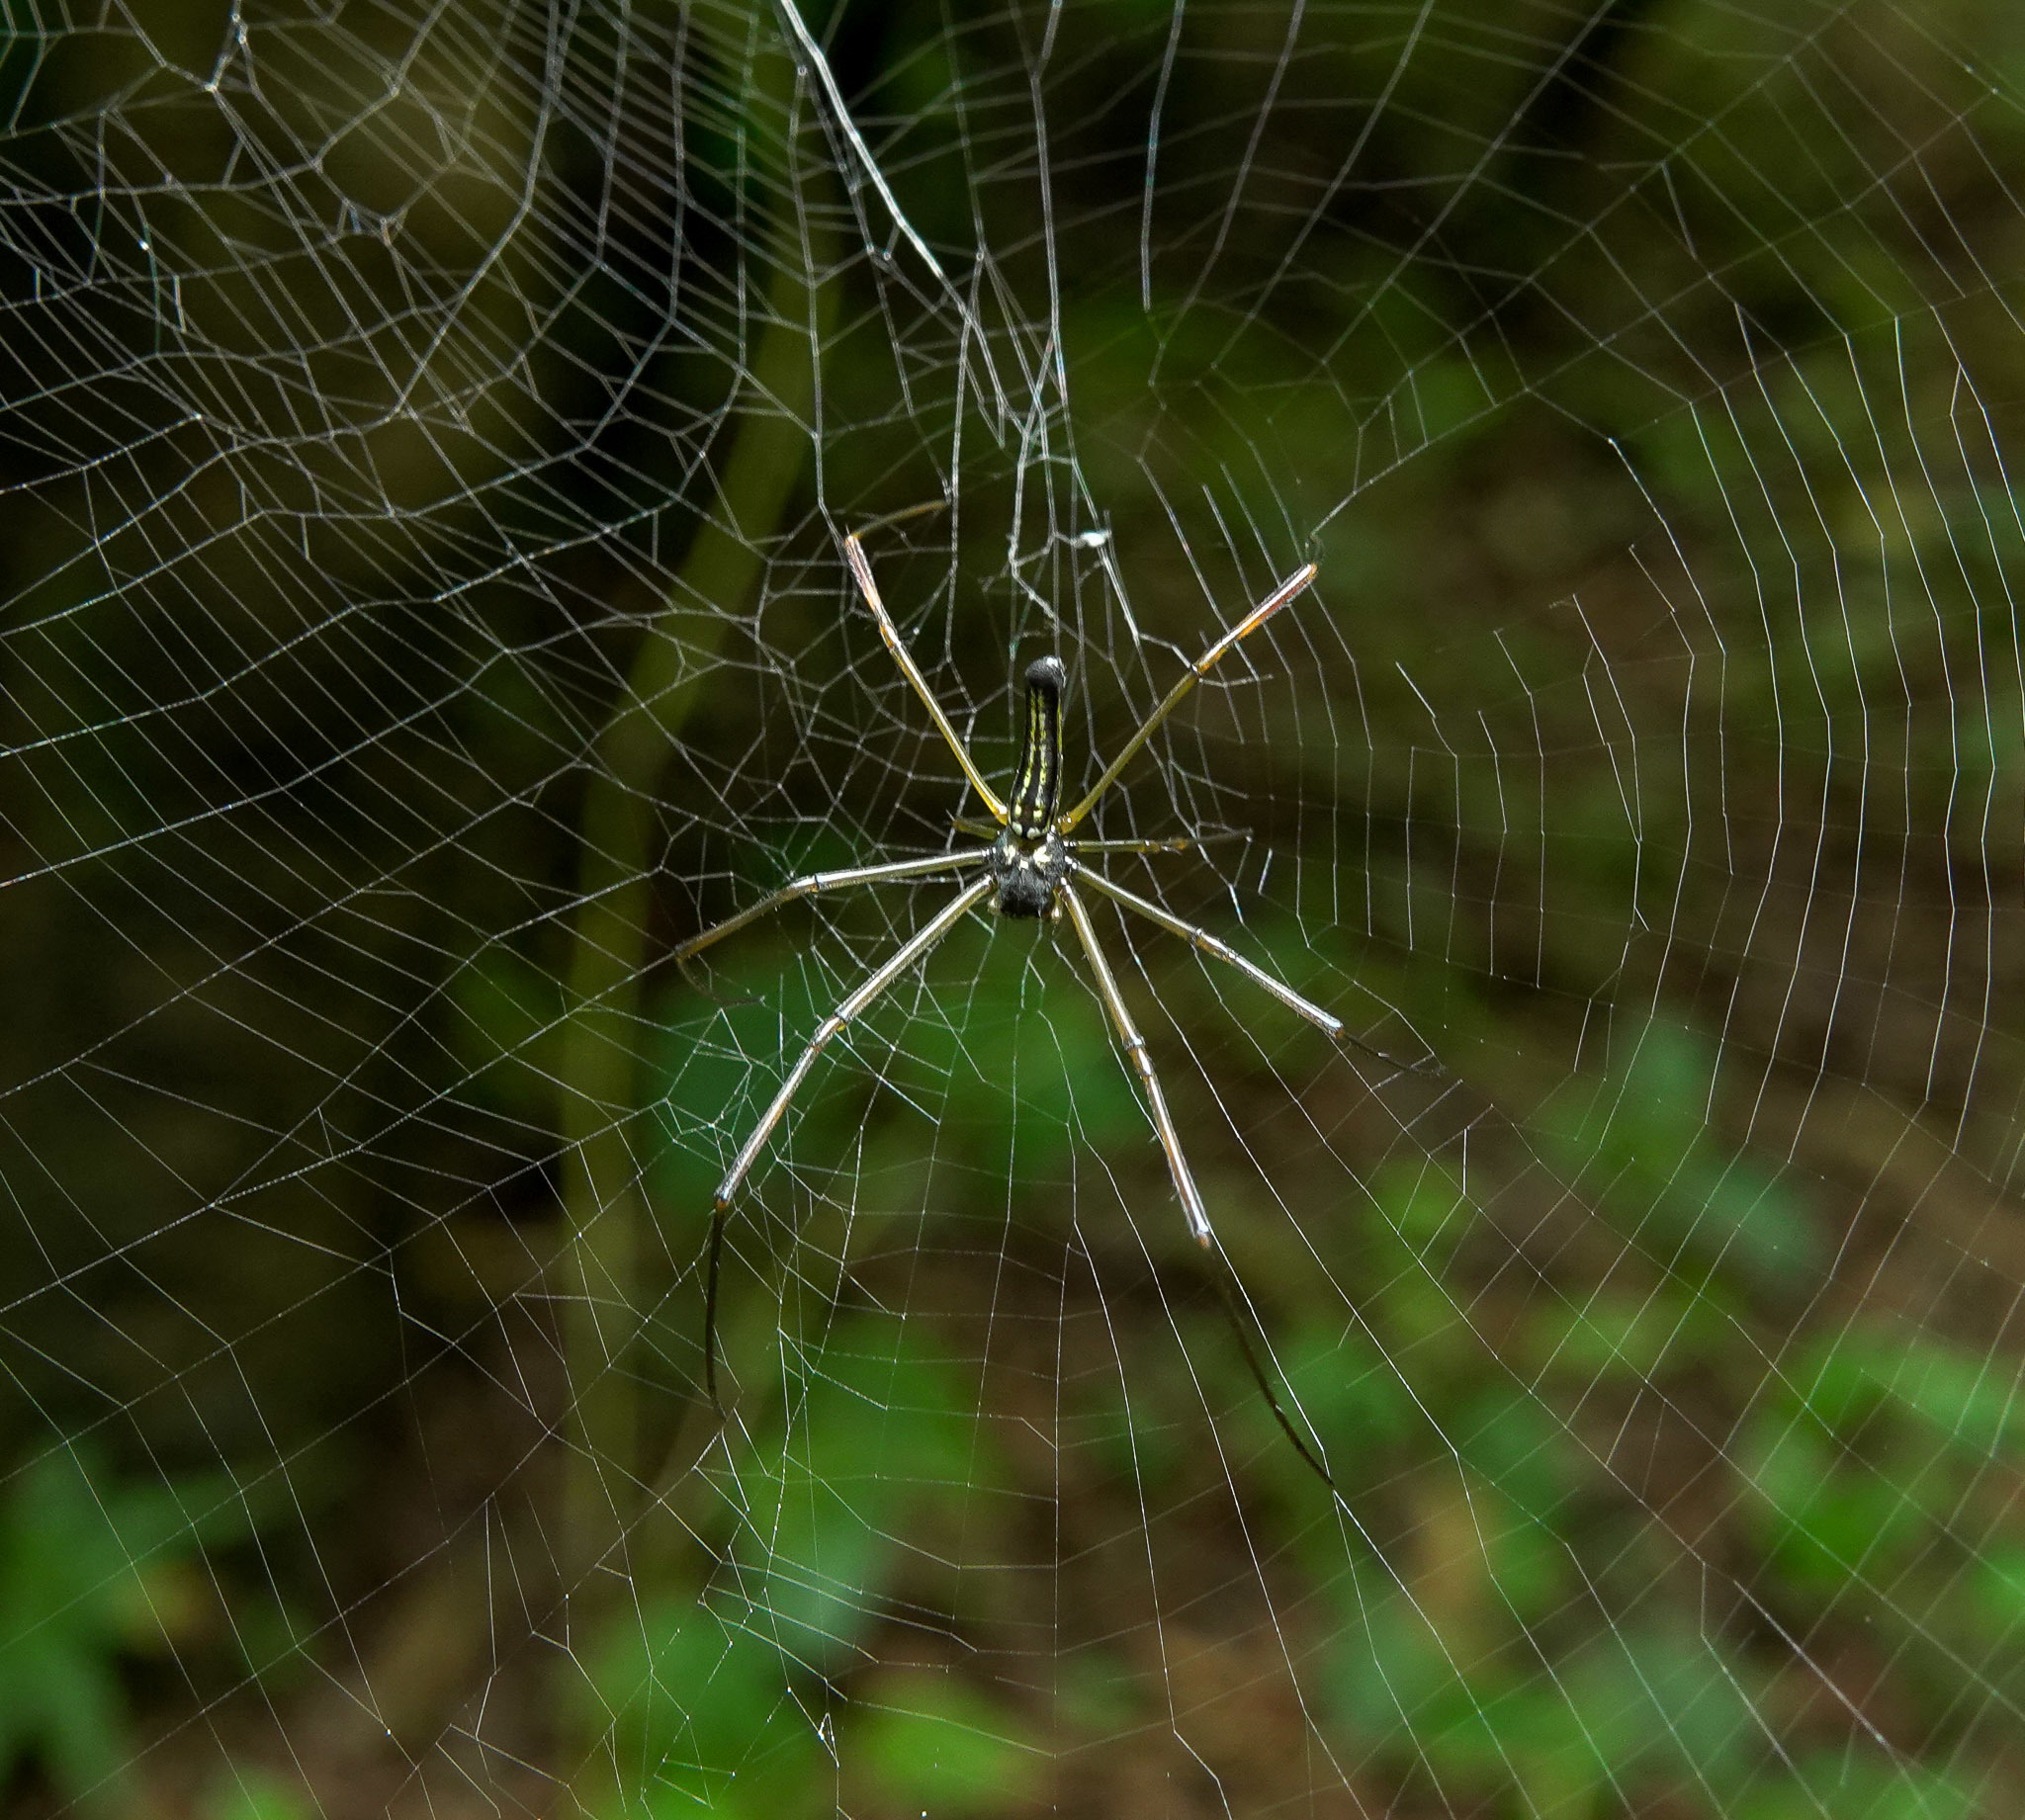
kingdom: Animalia
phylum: Arthropoda
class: Arachnida
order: Araneae
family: Araneidae
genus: Nephila
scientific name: Nephila pilipes
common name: Giant golden orb weaver
